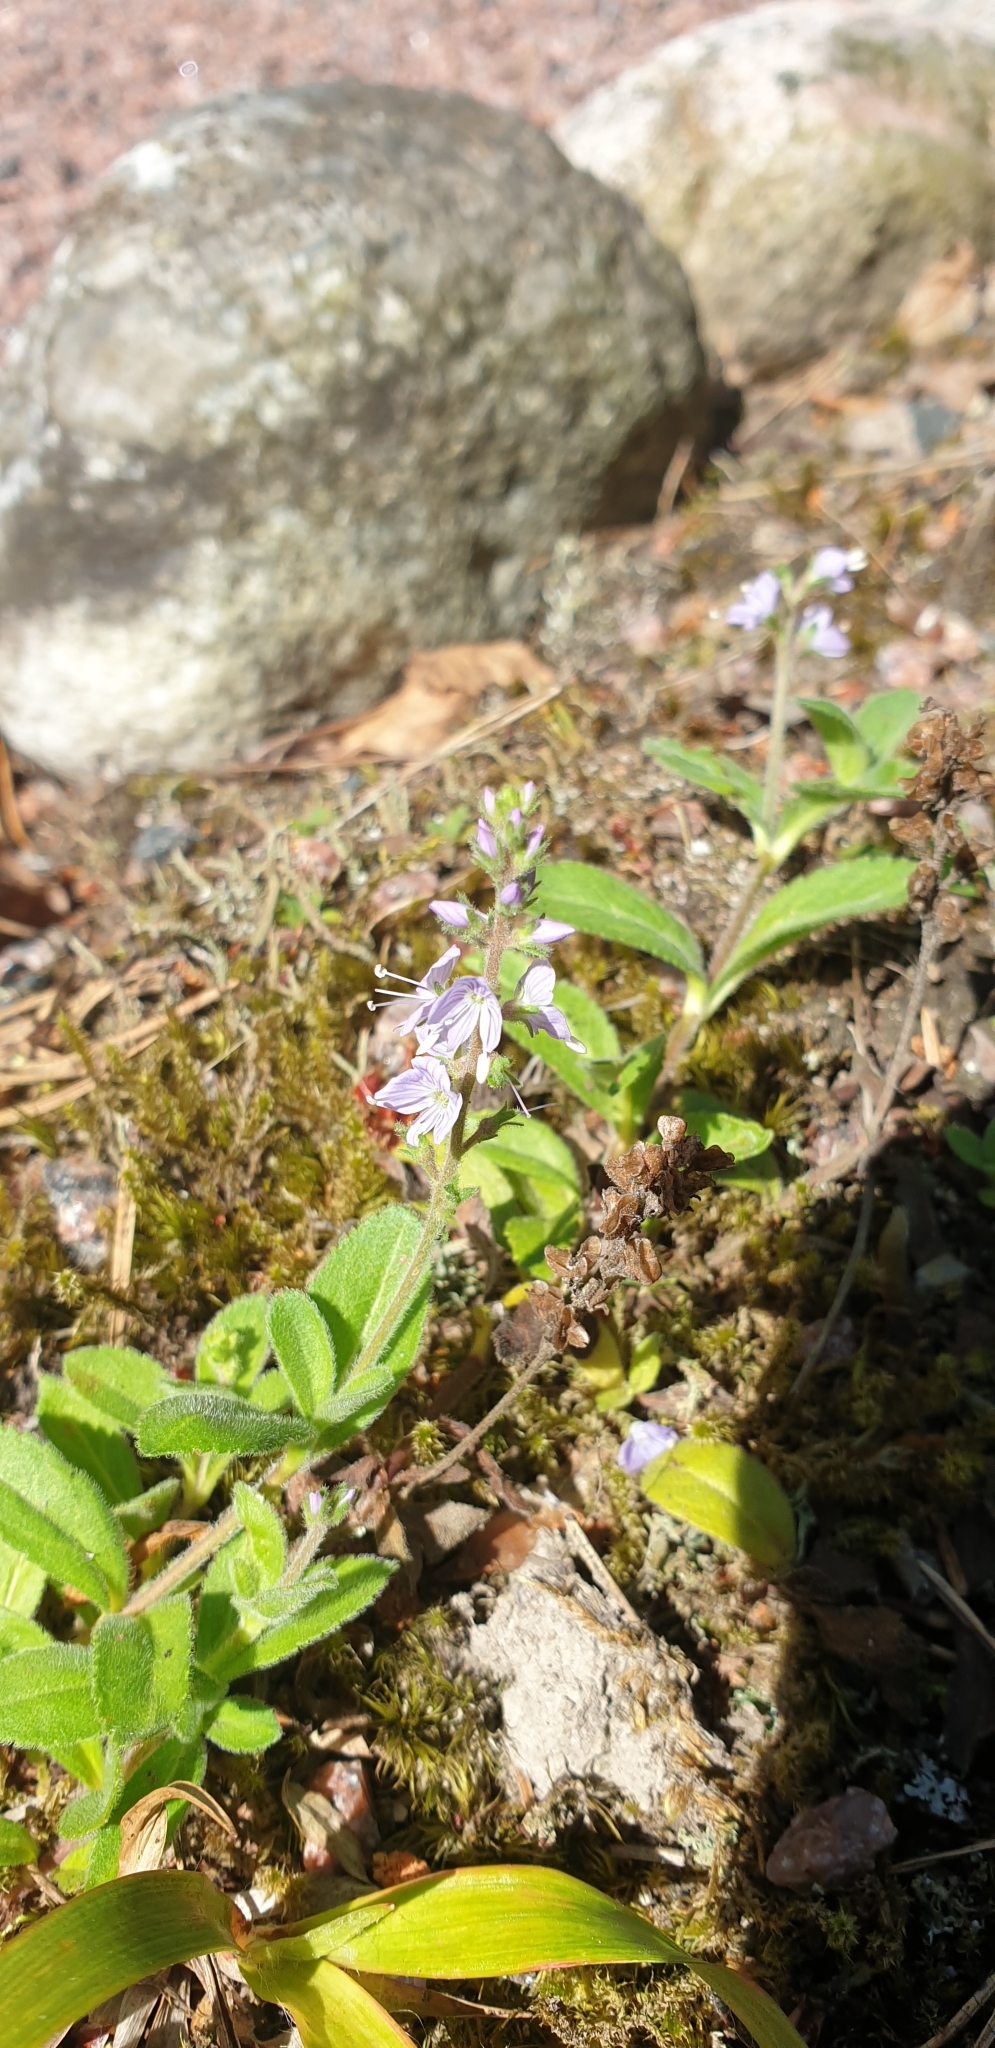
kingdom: Plantae
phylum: Tracheophyta
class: Magnoliopsida
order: Lamiales
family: Plantaginaceae
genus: Veronica
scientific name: Veronica officinalis
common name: Common speedwell
